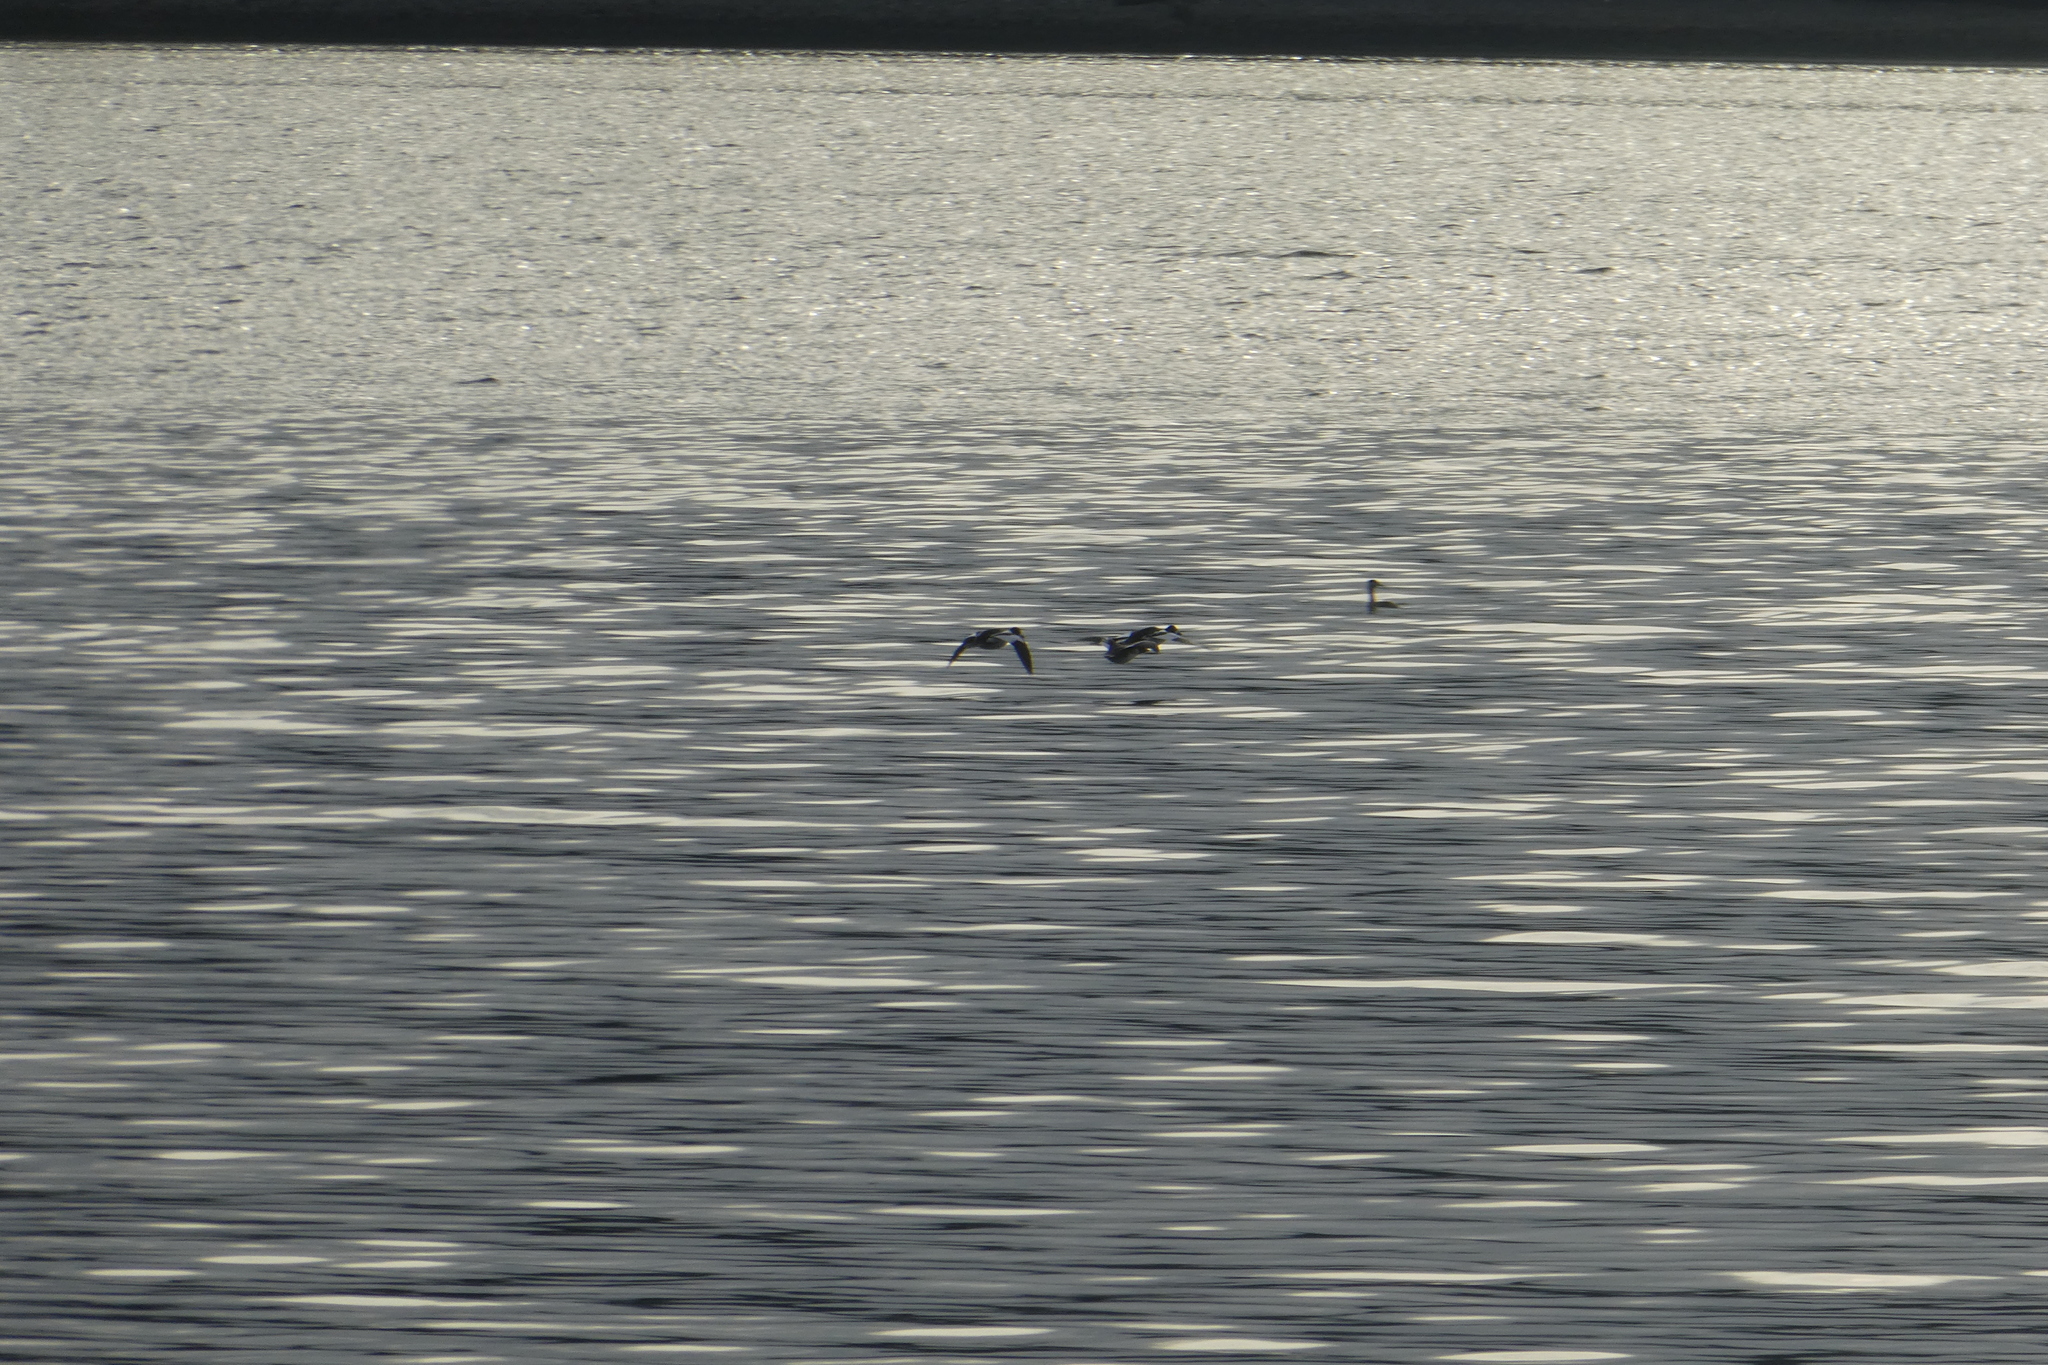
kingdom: Animalia
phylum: Chordata
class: Aves
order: Anseriformes
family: Anatidae
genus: Bucephala
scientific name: Bucephala clangula
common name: Common goldeneye
